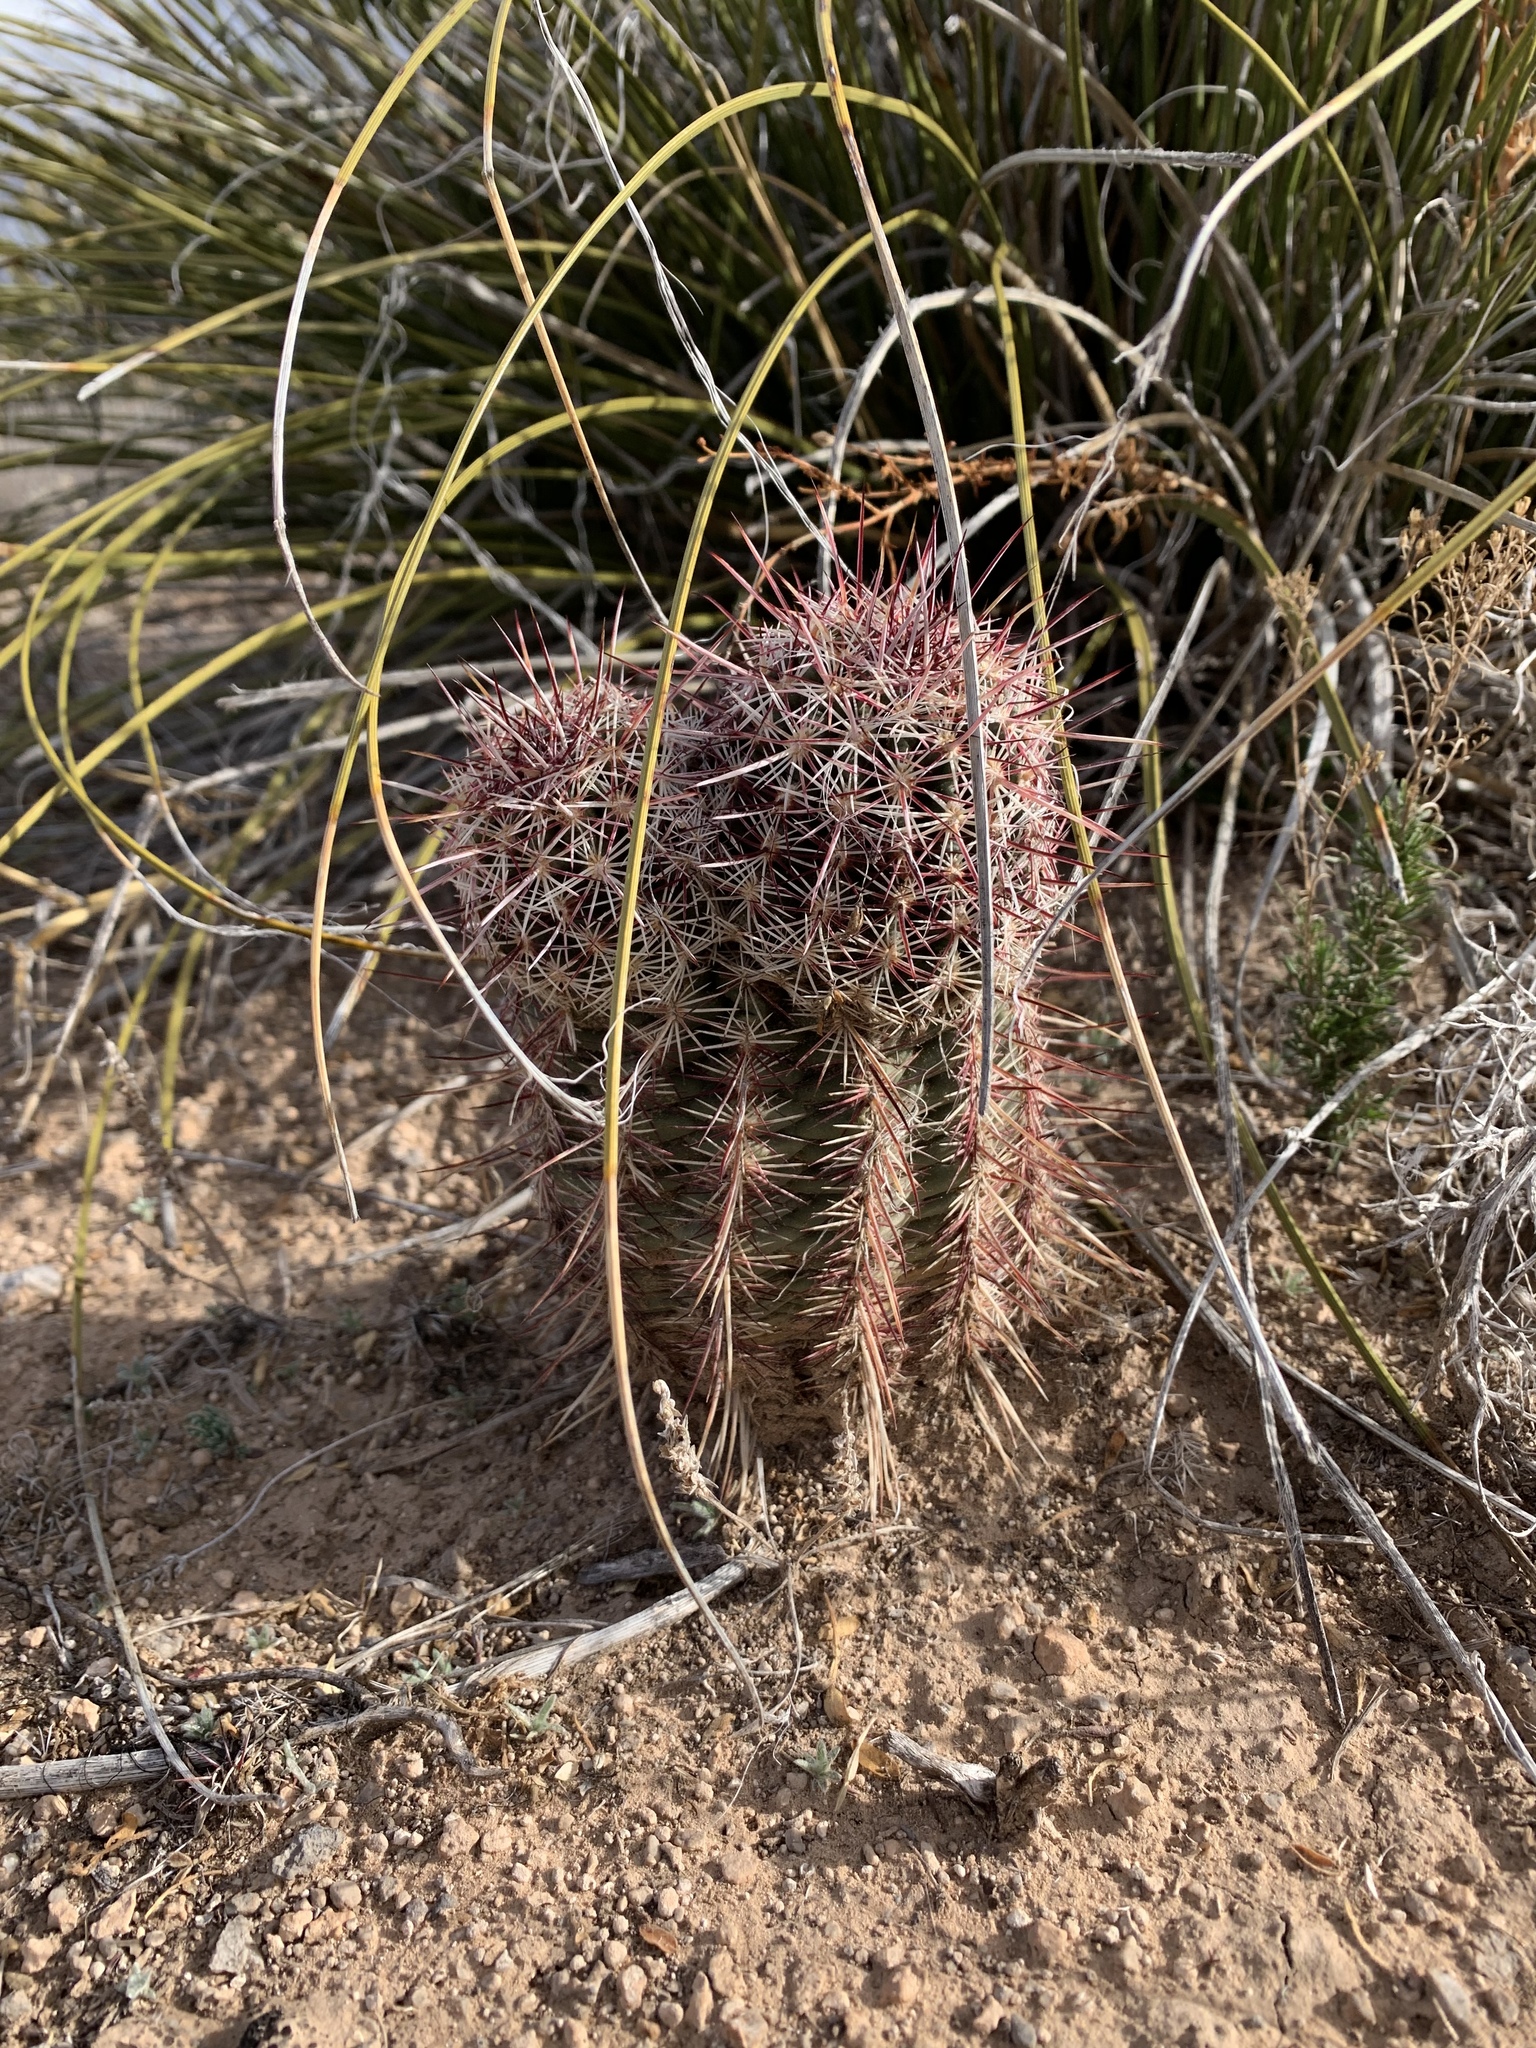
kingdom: Plantae
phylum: Tracheophyta
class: Magnoliopsida
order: Caryophyllales
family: Cactaceae
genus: Echinocereus
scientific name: Echinocereus viridiflorus
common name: Nylon hedgehog cactus
